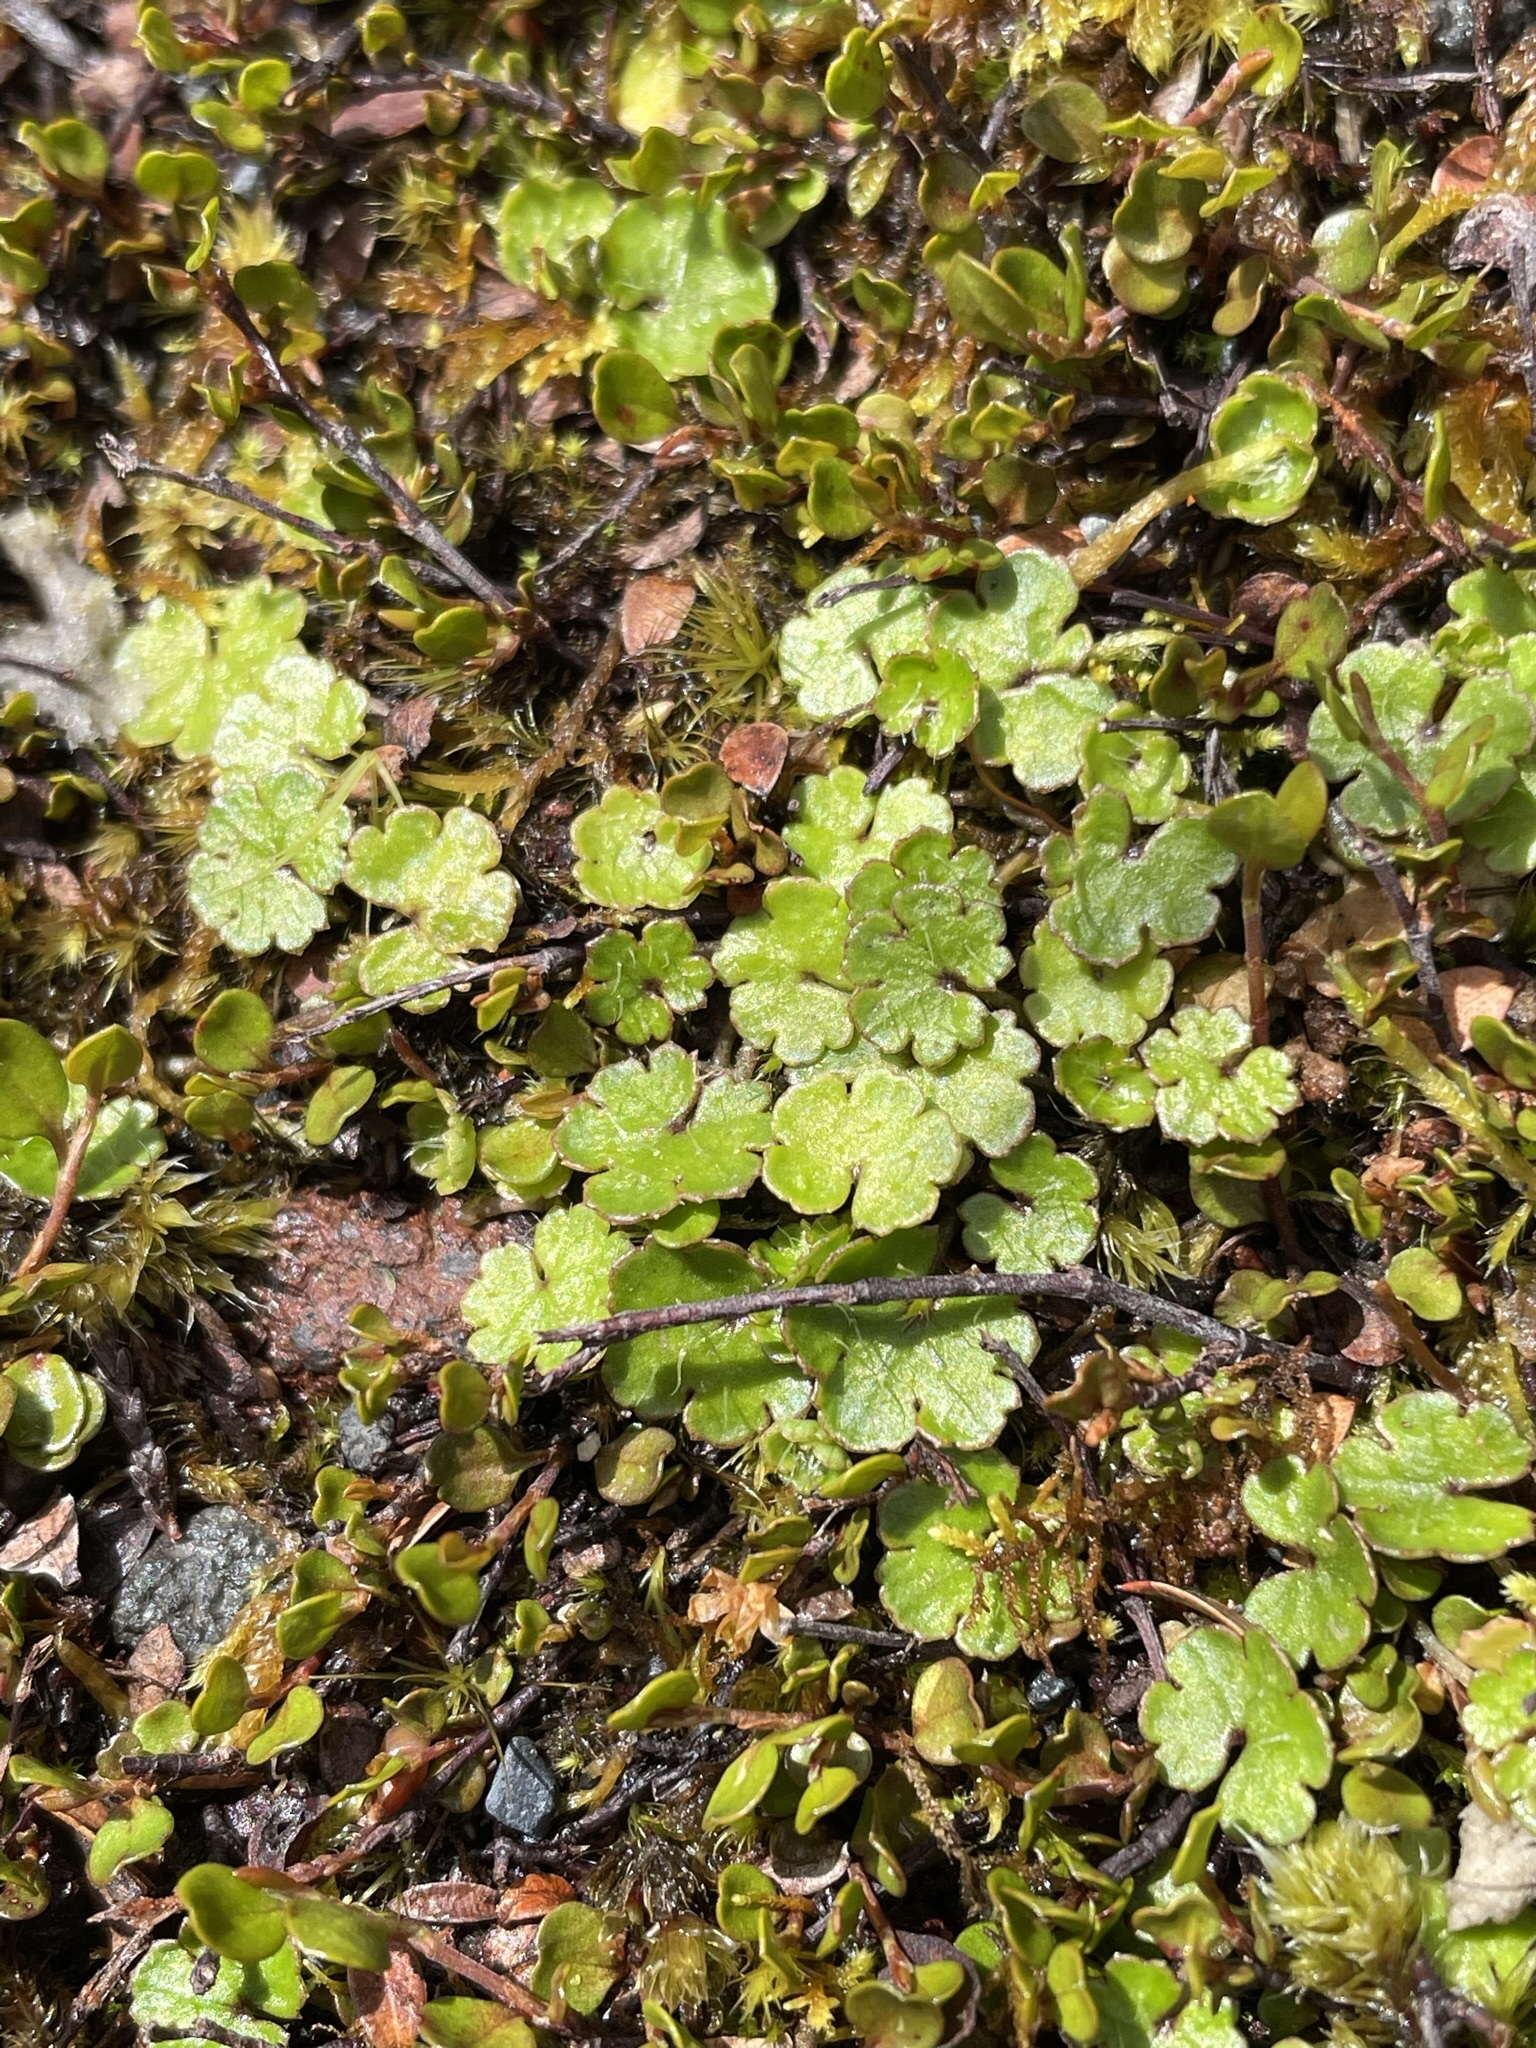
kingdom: Plantae
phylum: Tracheophyta
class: Magnoliopsida
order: Apiales
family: Araliaceae
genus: Hydrocotyle
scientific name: Hydrocotyle novae-zeelandiae
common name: New zealand pennywort
